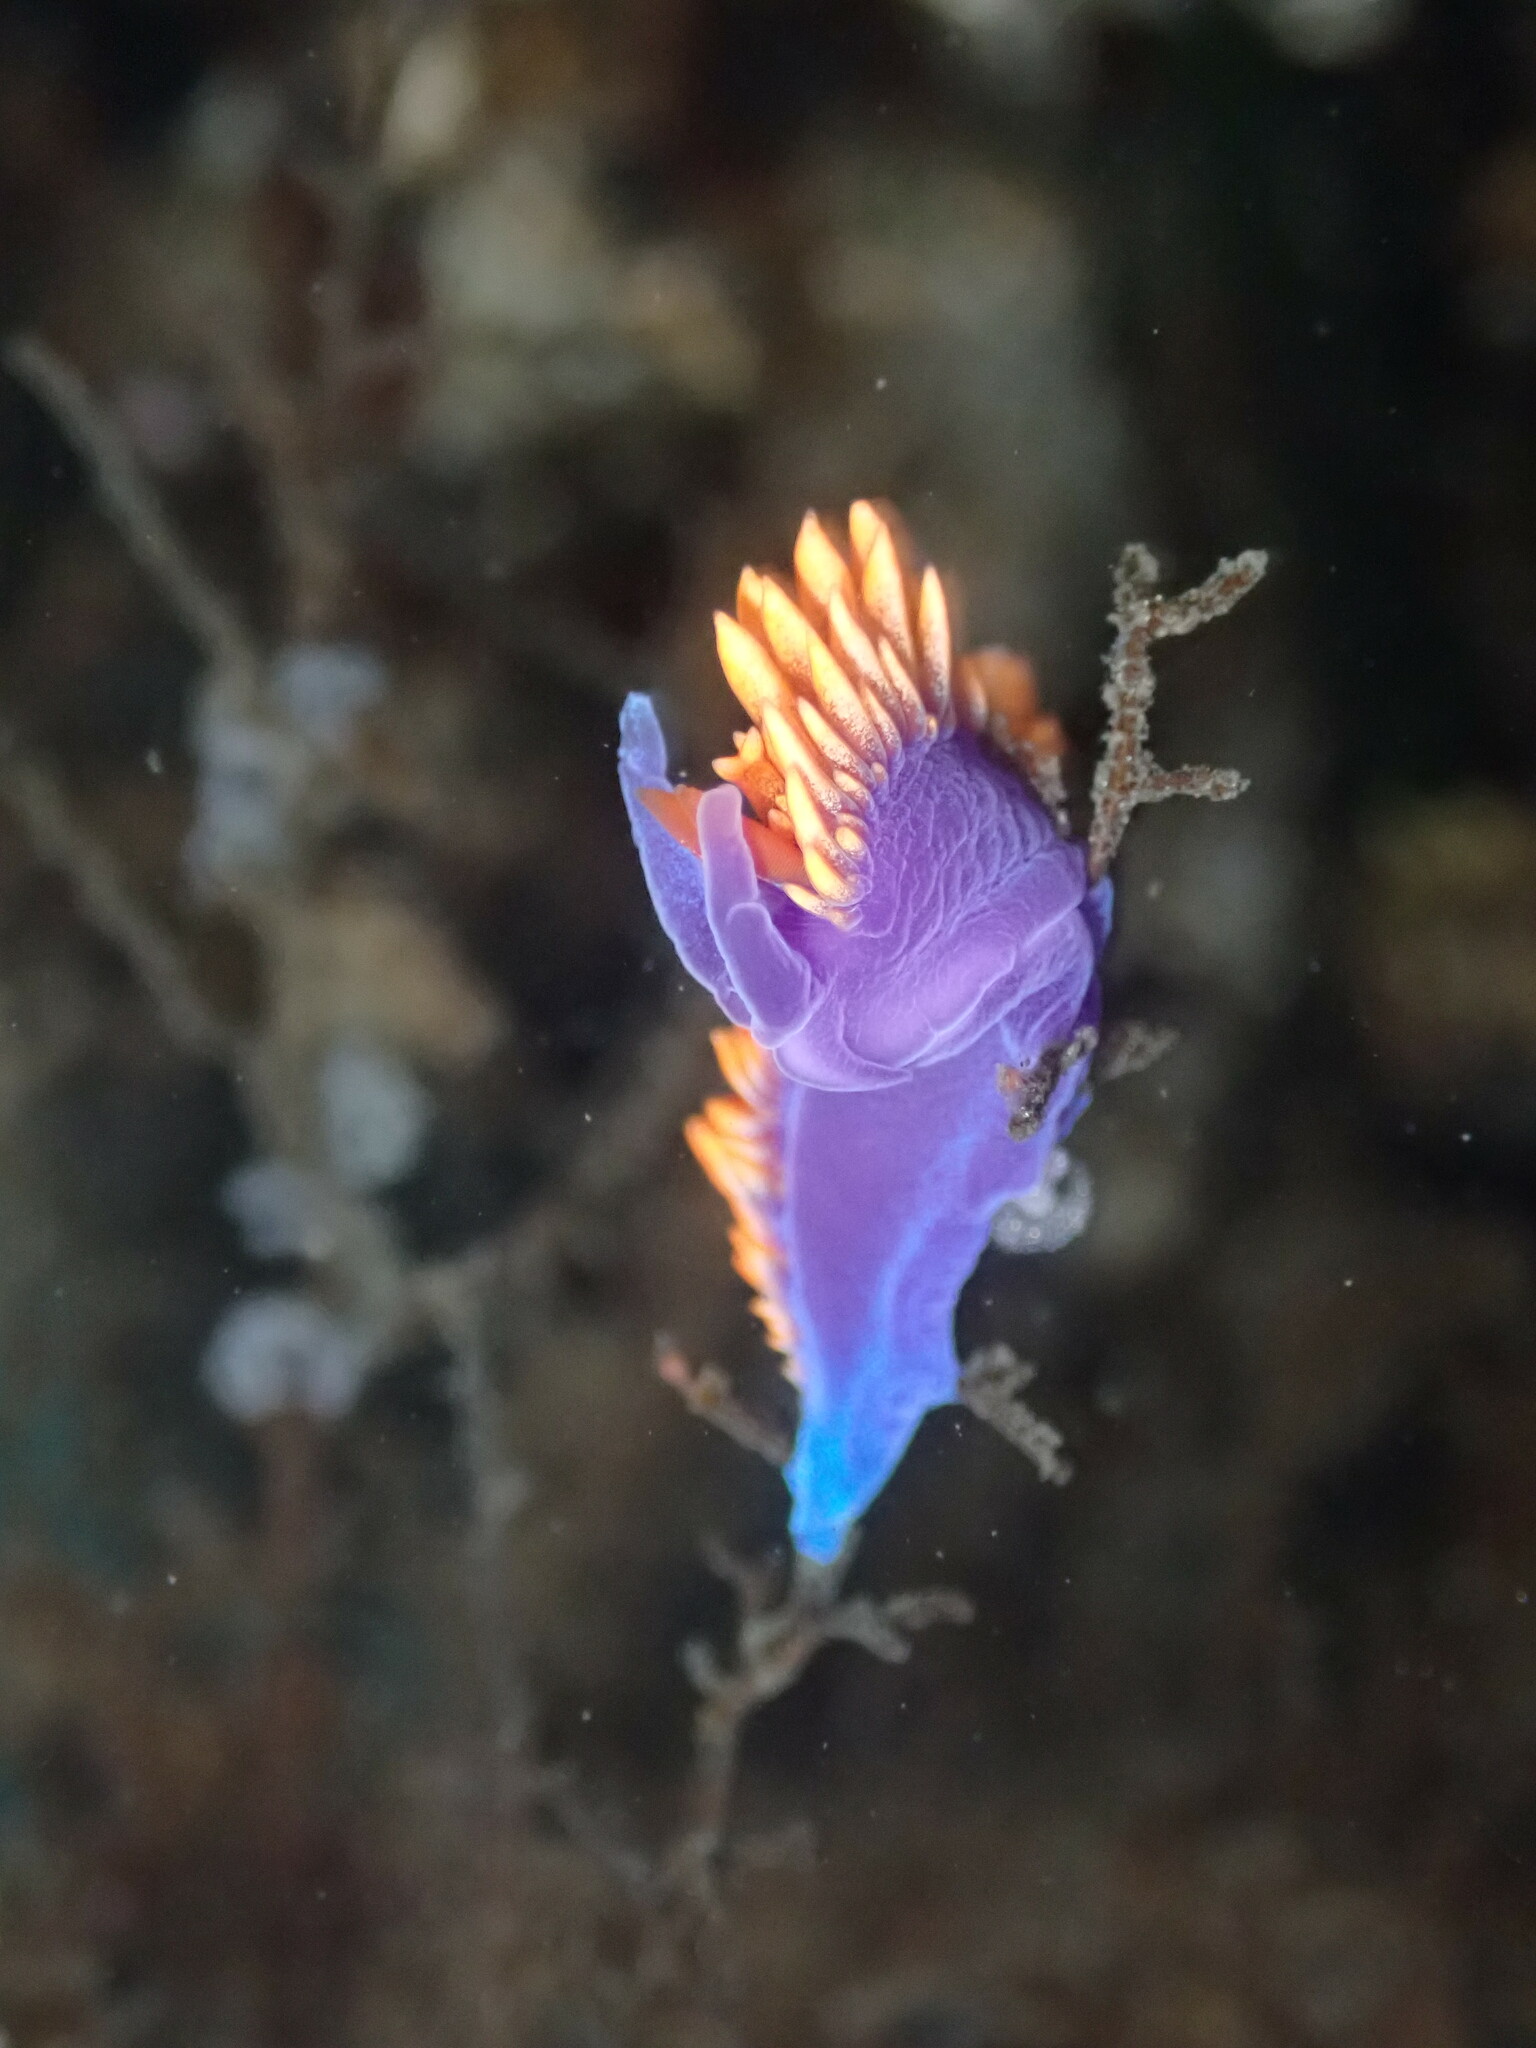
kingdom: Animalia
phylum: Mollusca
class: Gastropoda
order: Nudibranchia
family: Flabellinopsidae
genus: Flabellinopsis
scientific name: Flabellinopsis iodinea
